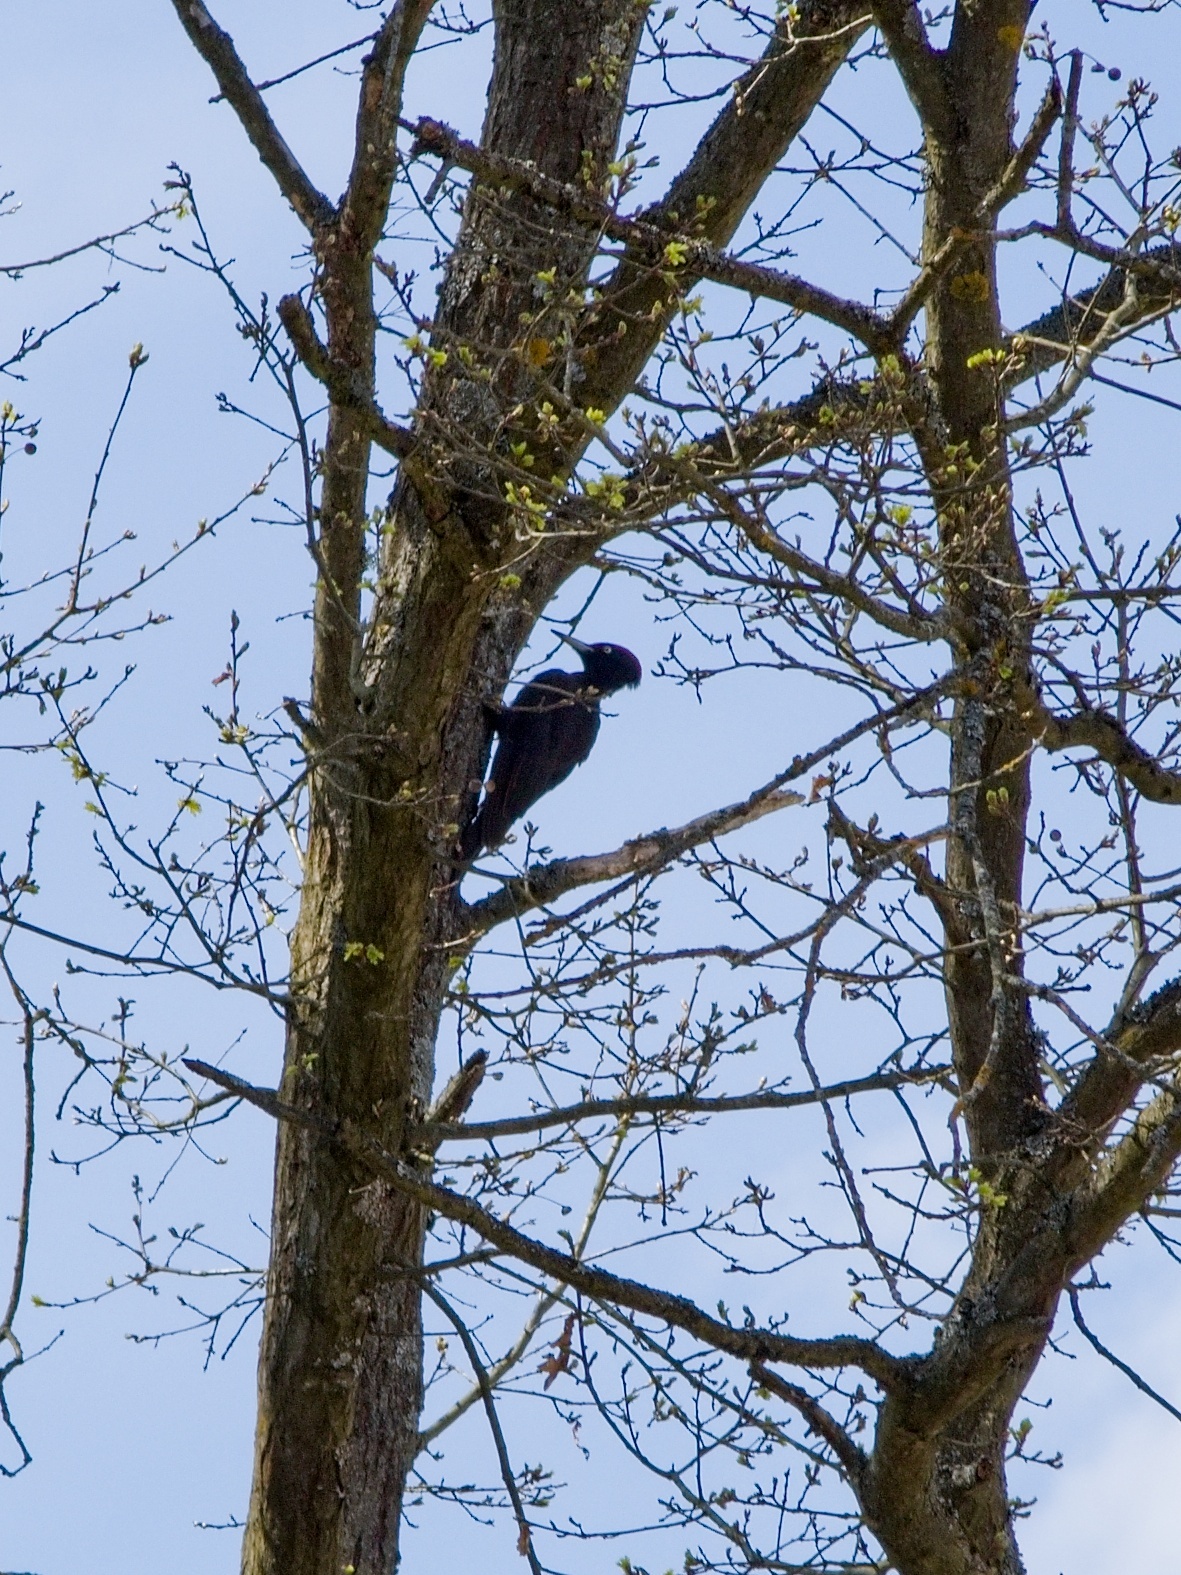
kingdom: Animalia
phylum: Chordata
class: Aves
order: Piciformes
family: Picidae
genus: Dryocopus
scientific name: Dryocopus martius
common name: Black woodpecker
